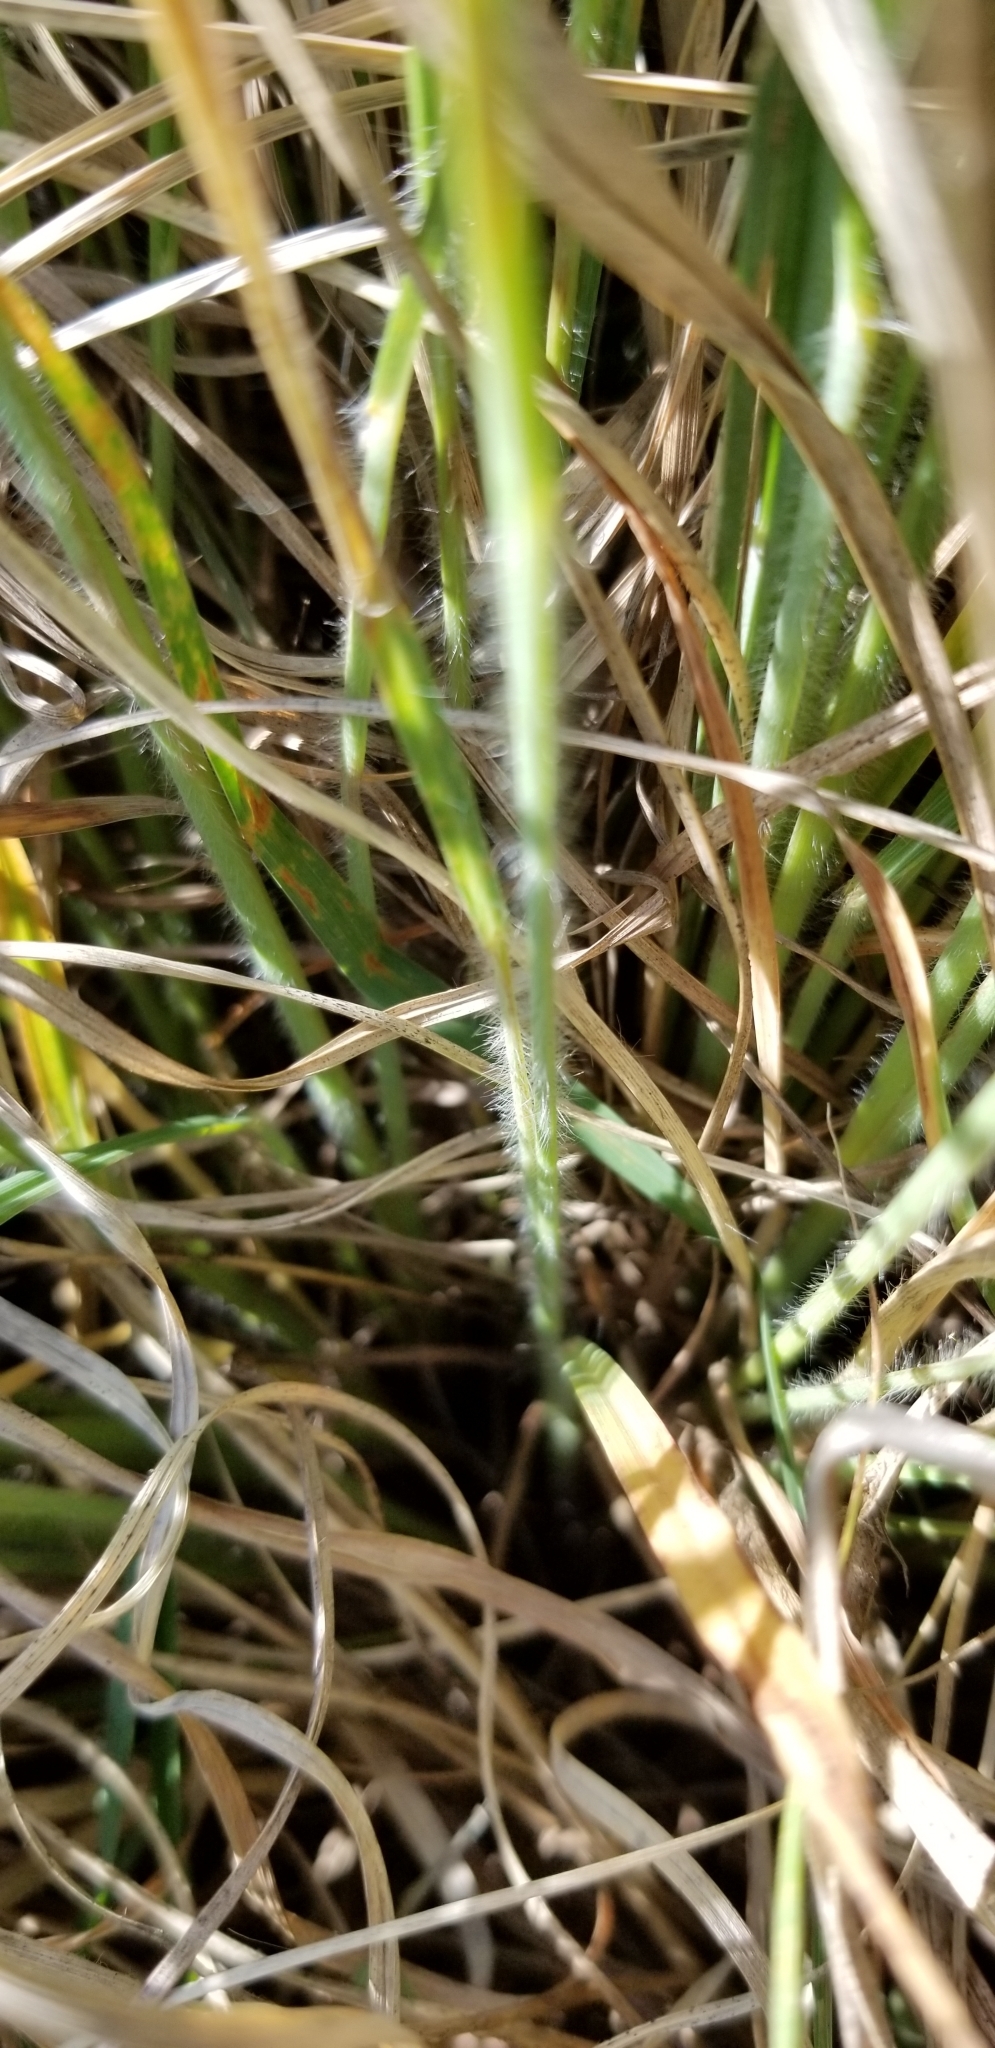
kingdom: Plantae
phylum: Tracheophyta
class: Liliopsida
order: Poales
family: Poaceae
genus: Andropogon
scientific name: Andropogon gerardi
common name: Big bluestem
